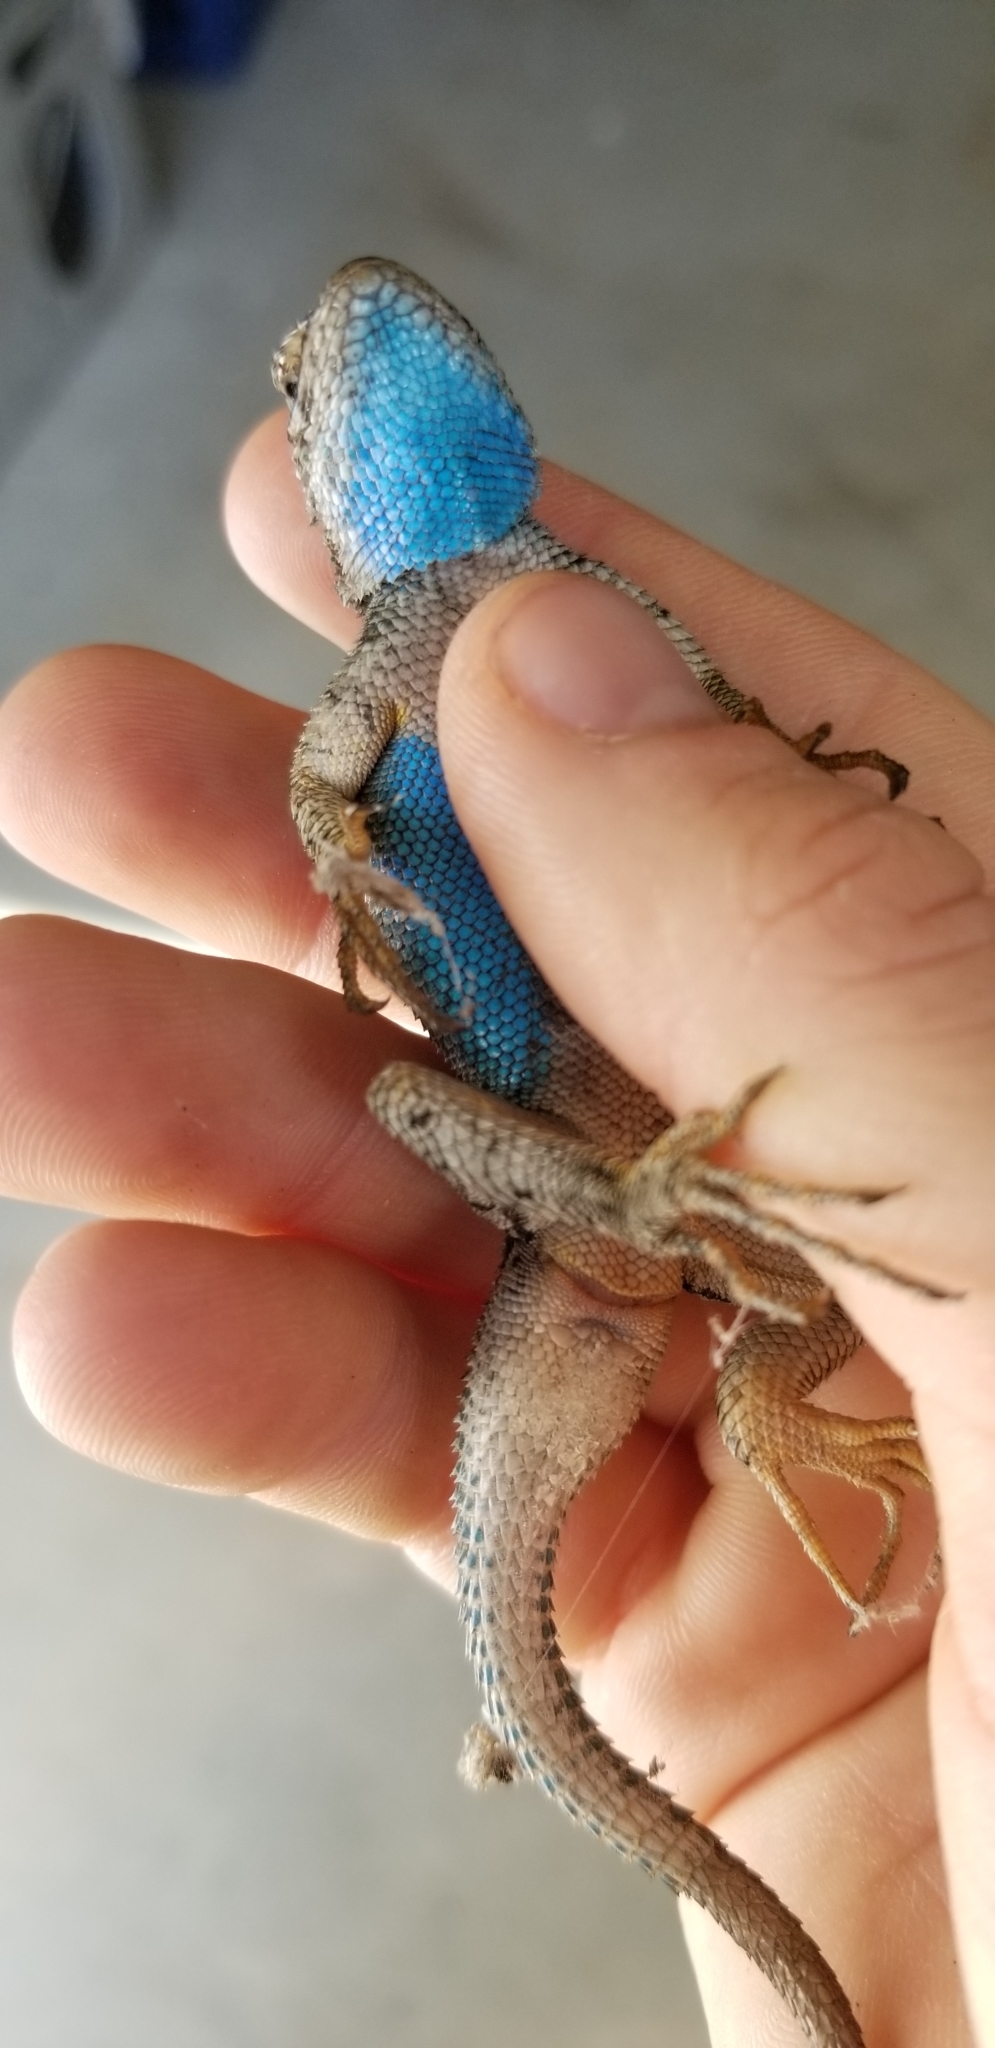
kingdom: Animalia
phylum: Chordata
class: Squamata
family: Phrynosomatidae
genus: Sceloporus
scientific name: Sceloporus occidentalis
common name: Western fence lizard
